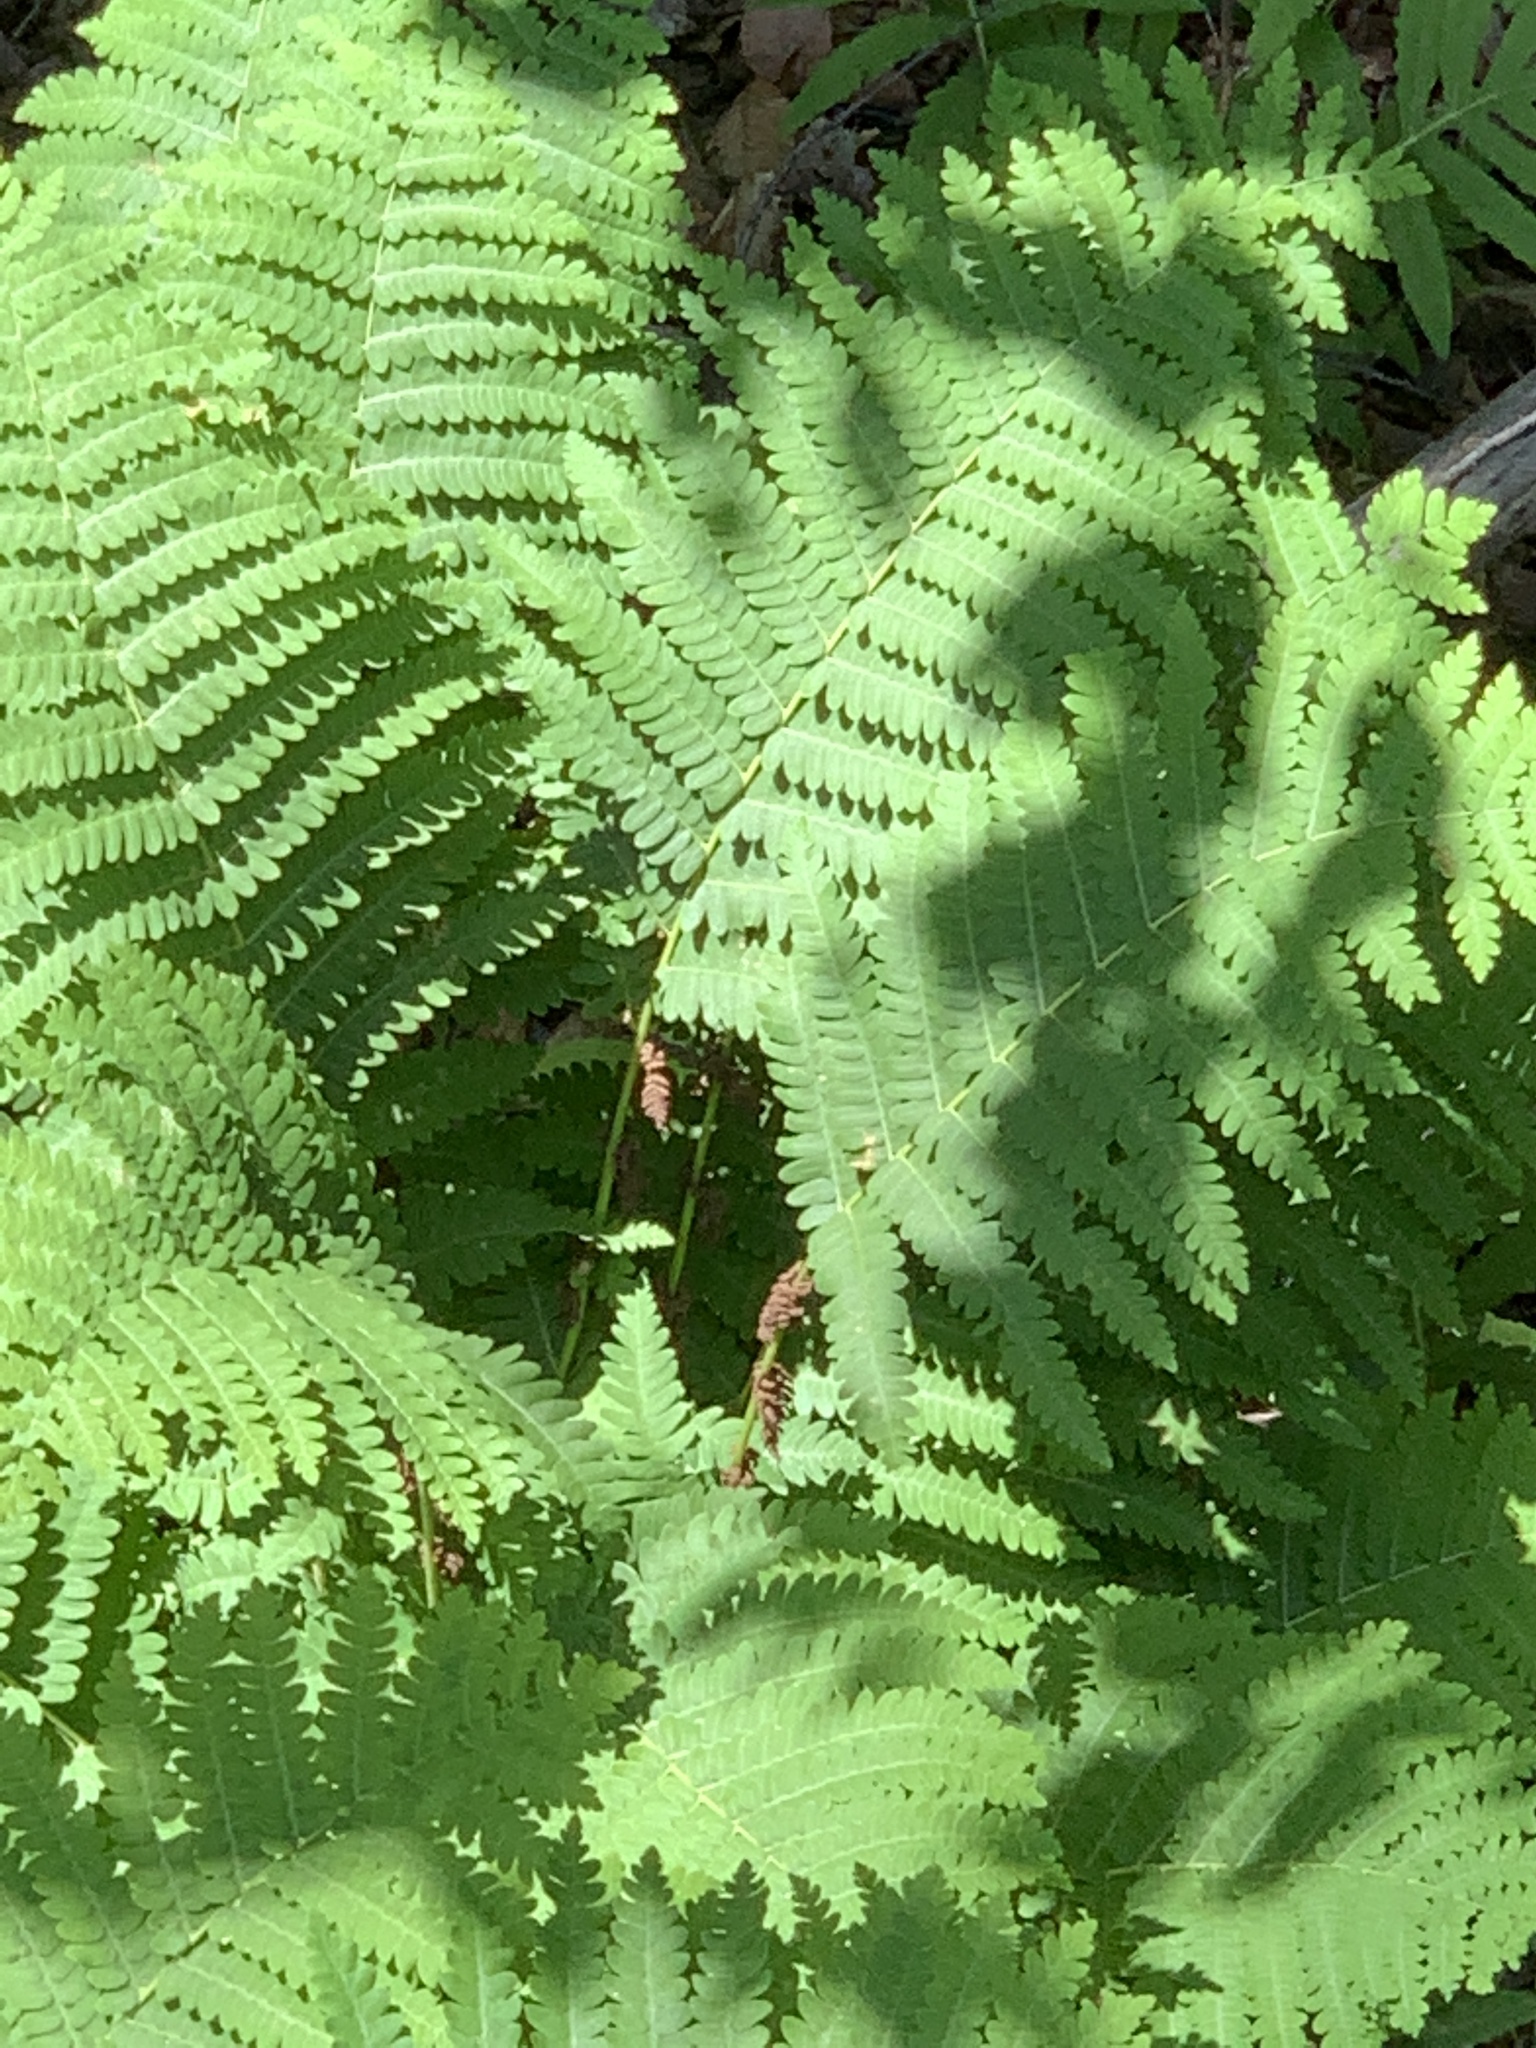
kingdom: Plantae
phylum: Tracheophyta
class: Polypodiopsida
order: Osmundales
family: Osmundaceae
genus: Claytosmunda
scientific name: Claytosmunda claytoniana
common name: Clayton's fern
